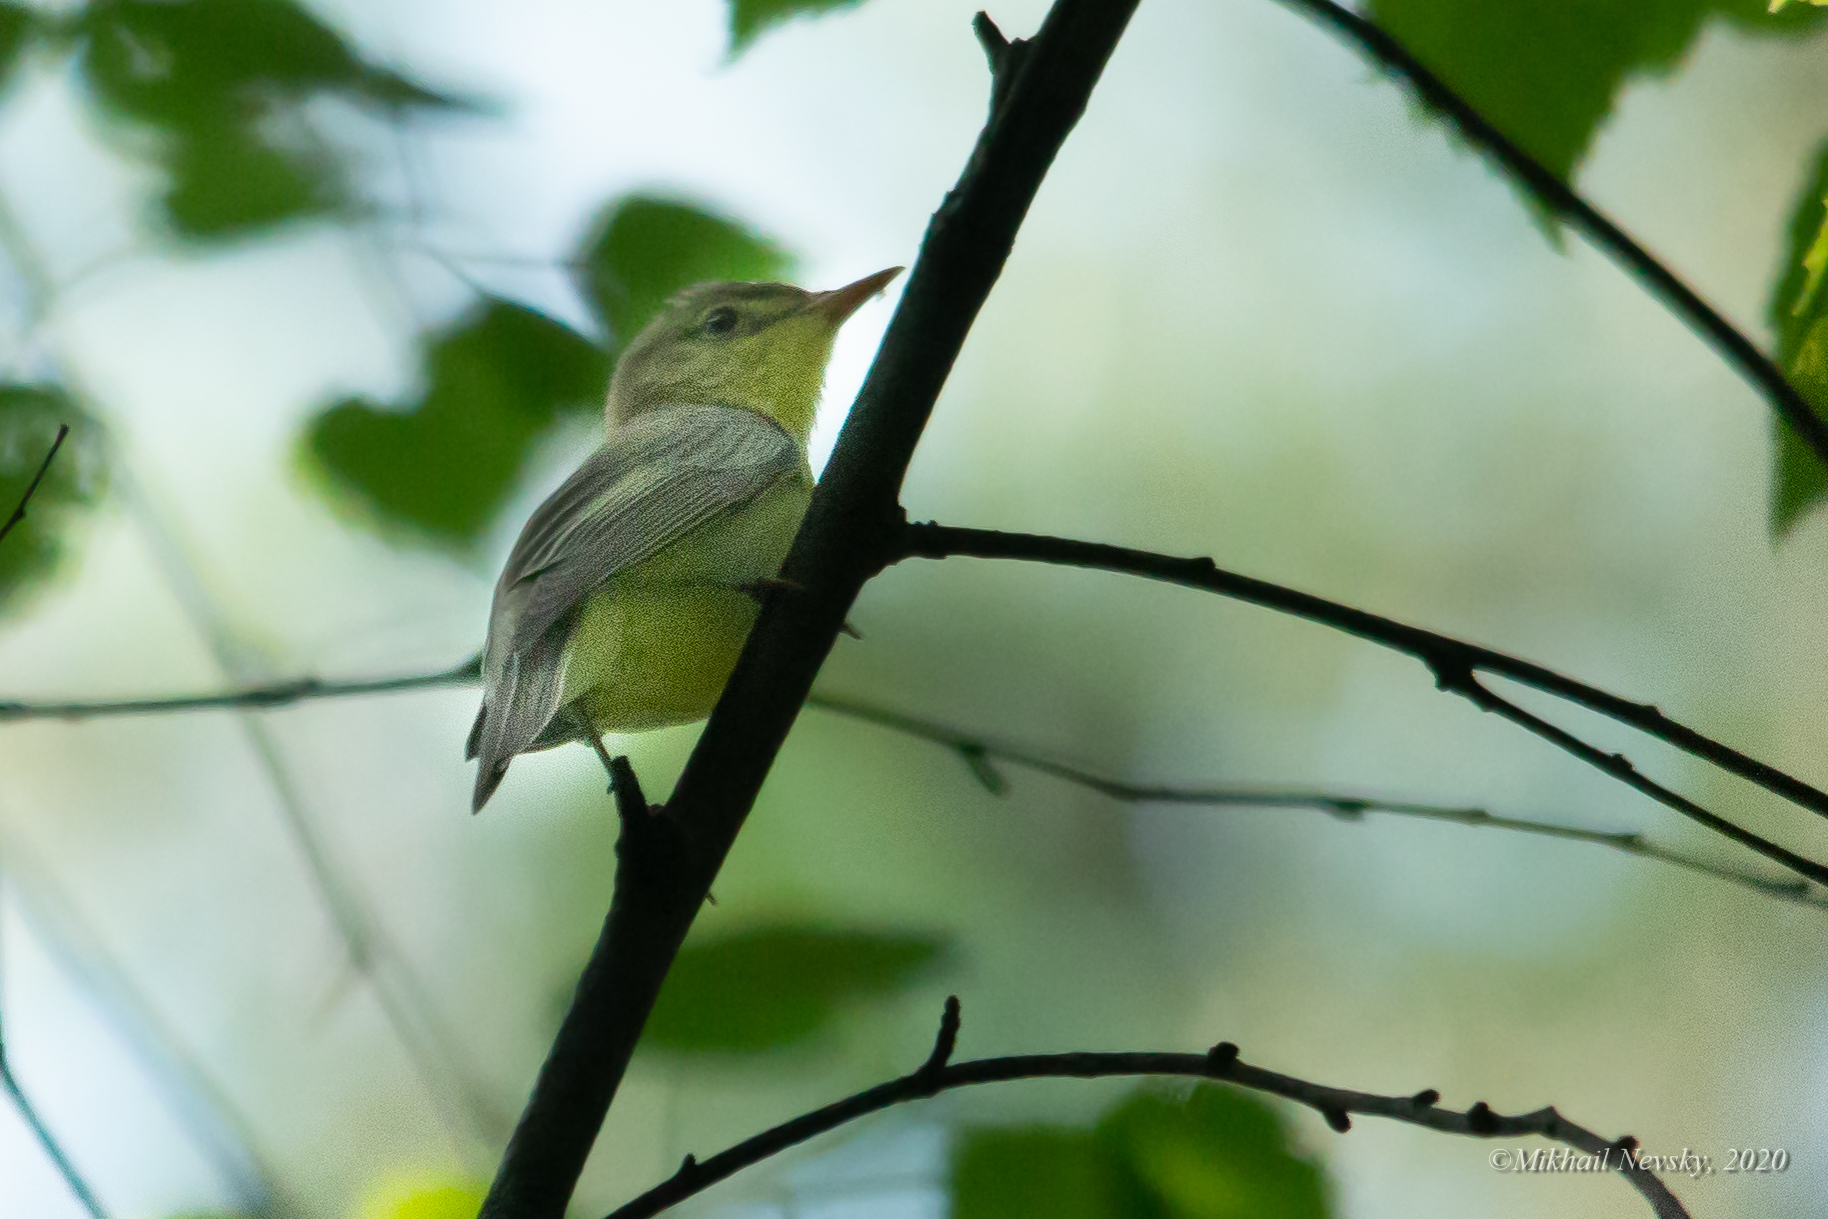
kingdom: Animalia
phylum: Chordata
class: Aves
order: Passeriformes
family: Acrocephalidae
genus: Hippolais
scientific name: Hippolais icterina
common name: Icterine warbler
